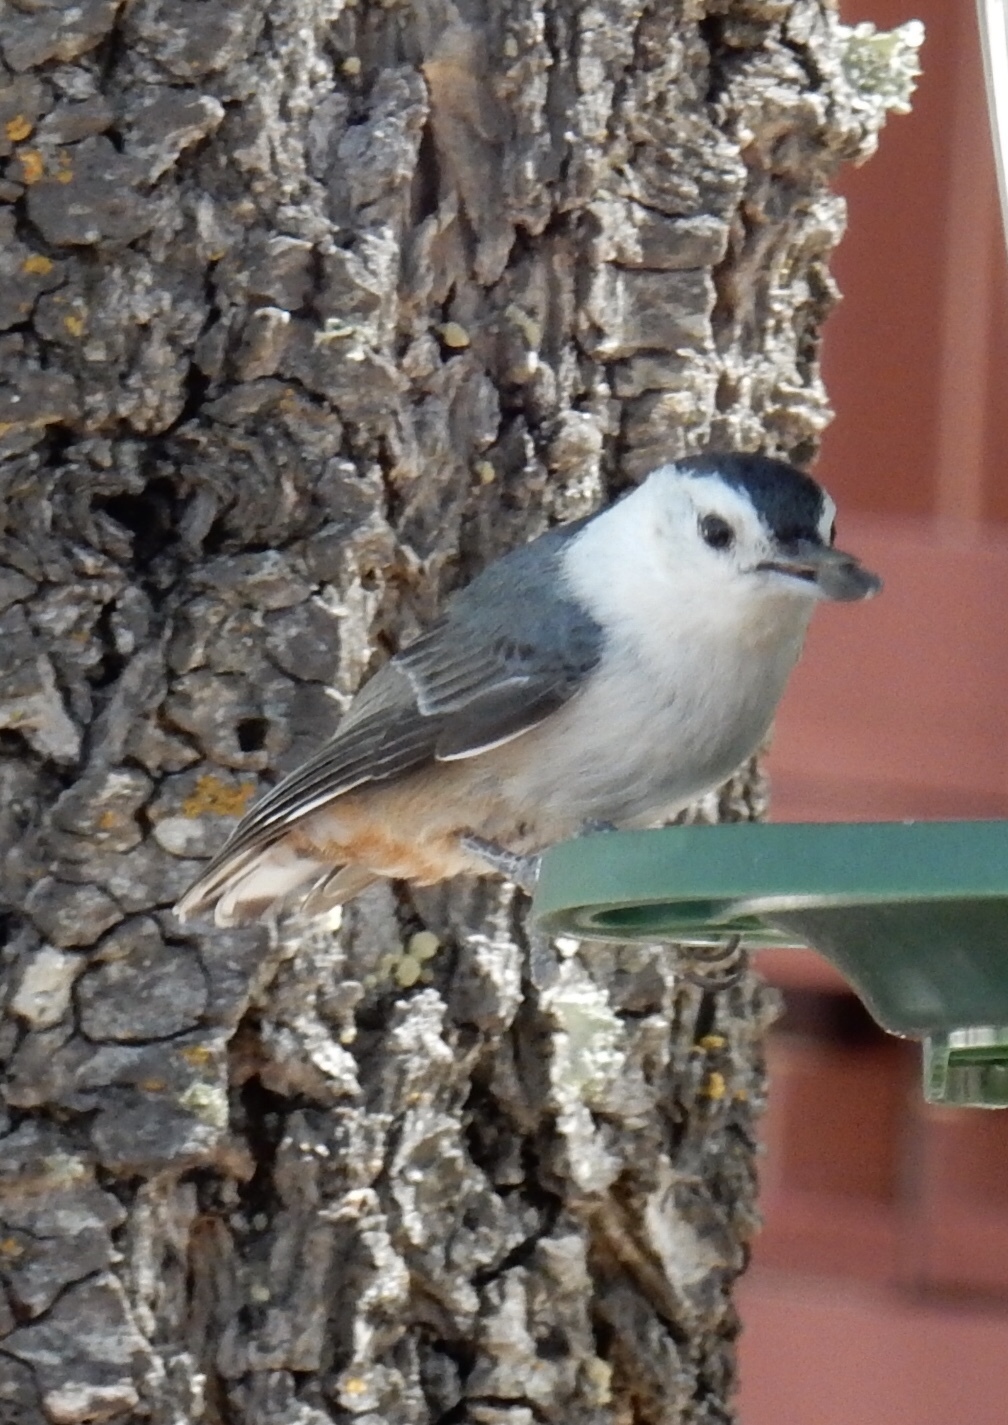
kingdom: Animalia
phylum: Chordata
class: Aves
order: Passeriformes
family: Sittidae
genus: Sitta
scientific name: Sitta carolinensis
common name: White-breasted nuthatch
